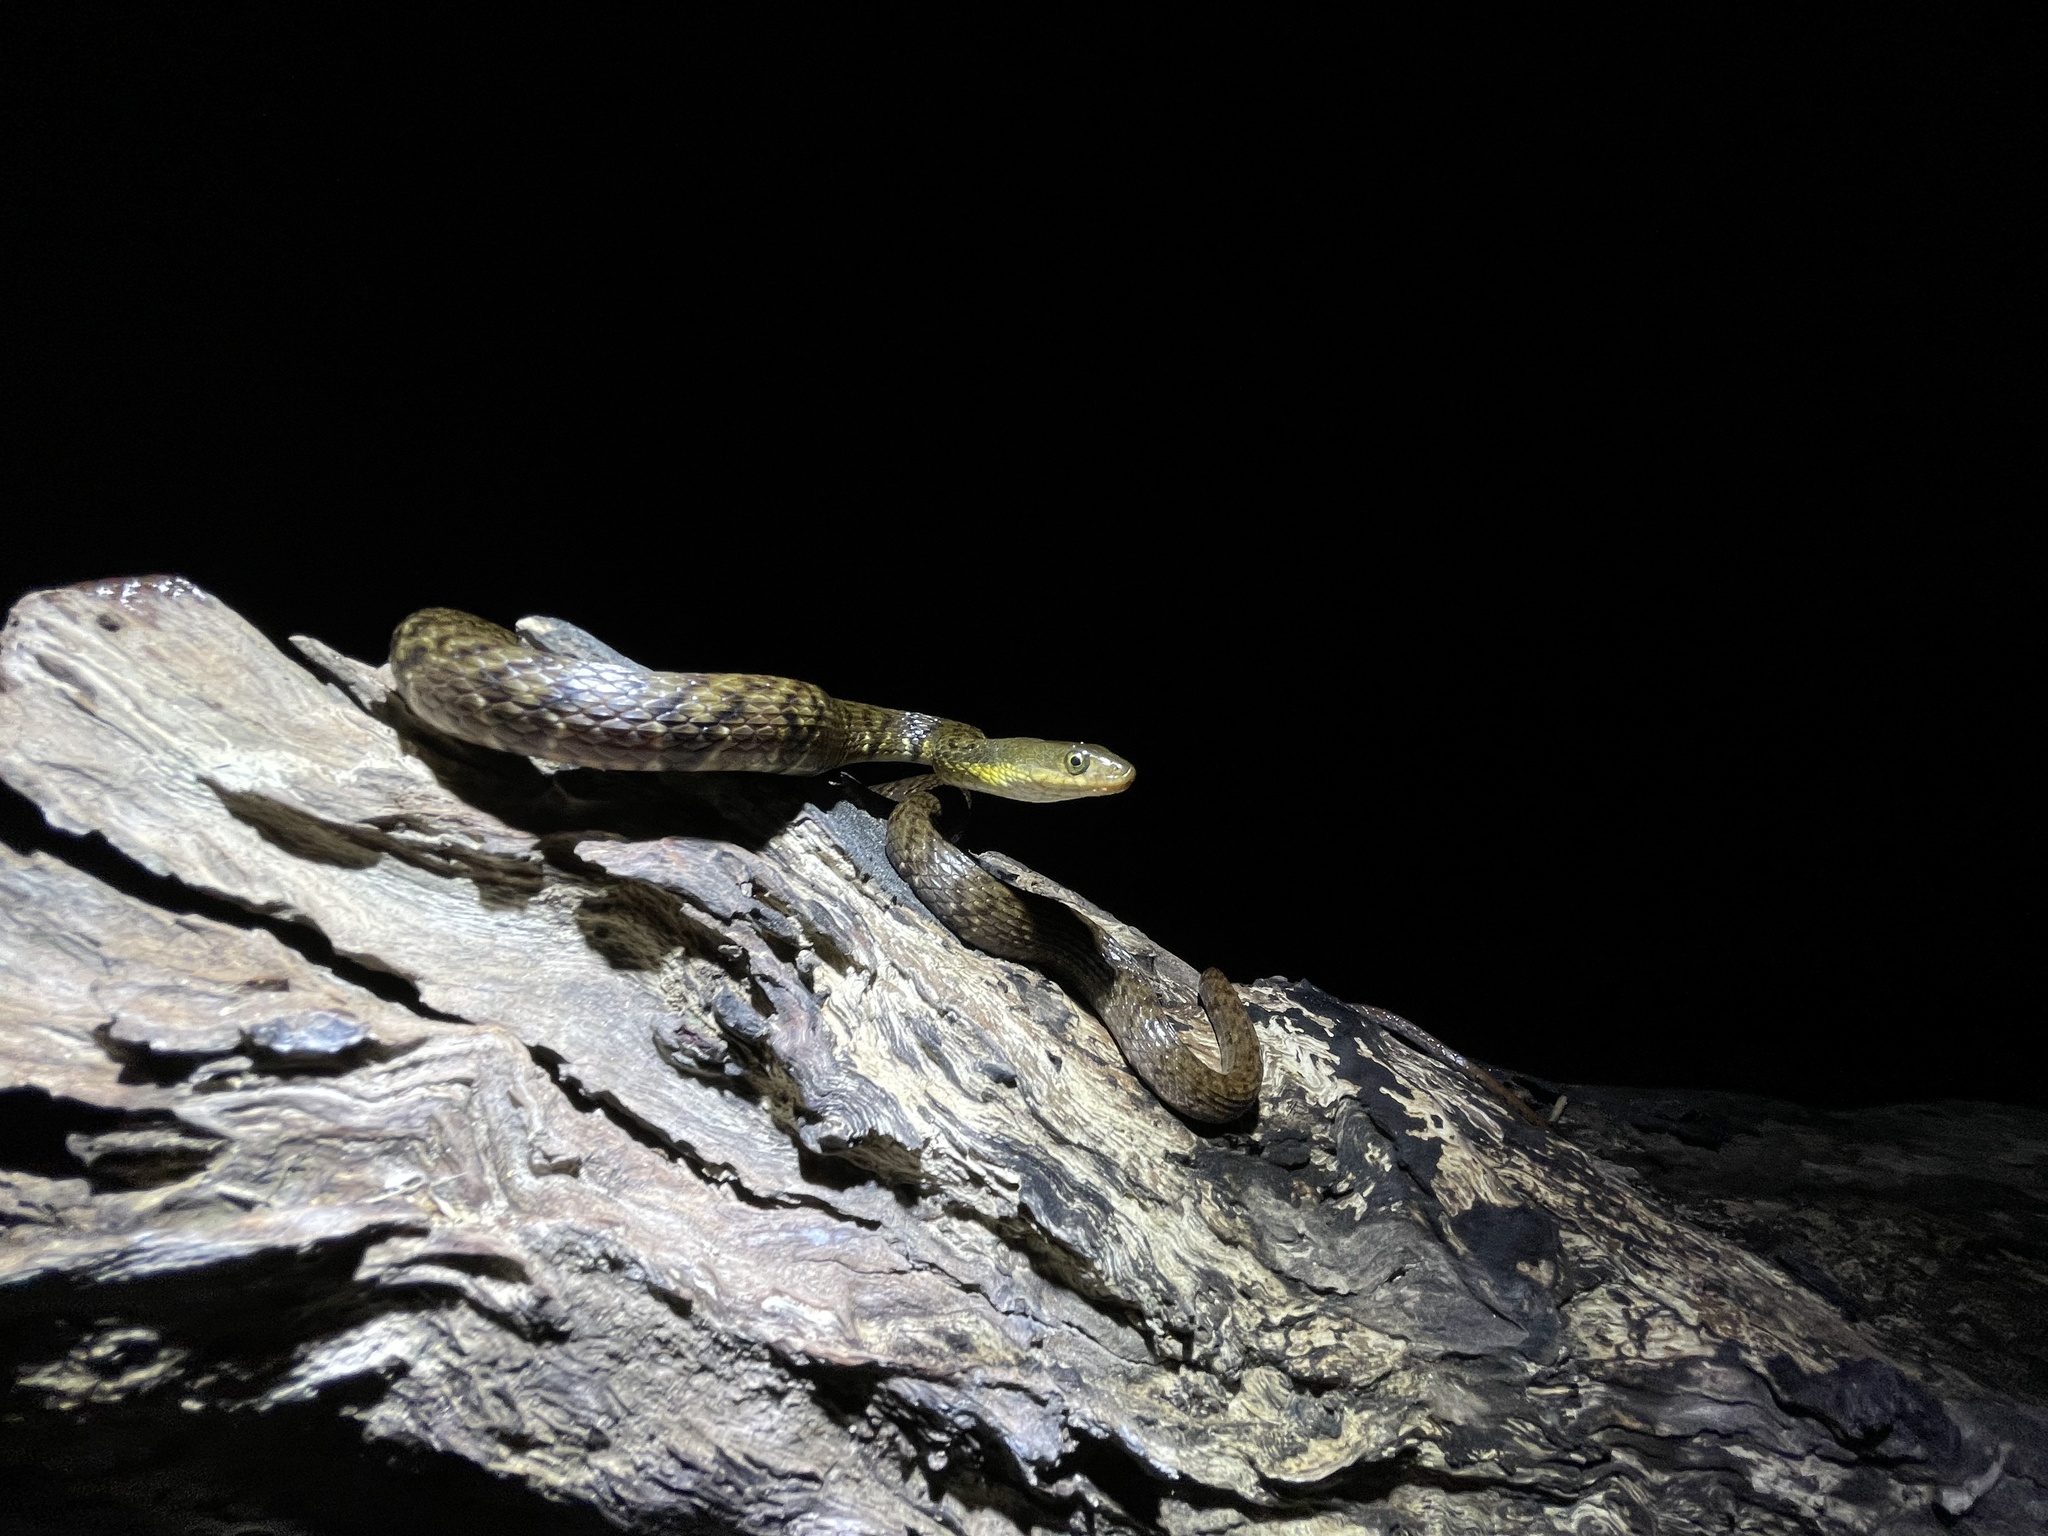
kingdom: Animalia
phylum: Chordata
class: Squamata
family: Colubridae
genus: Trimerodytes
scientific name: Trimerodytes percarinatus
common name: Eastern water snake
